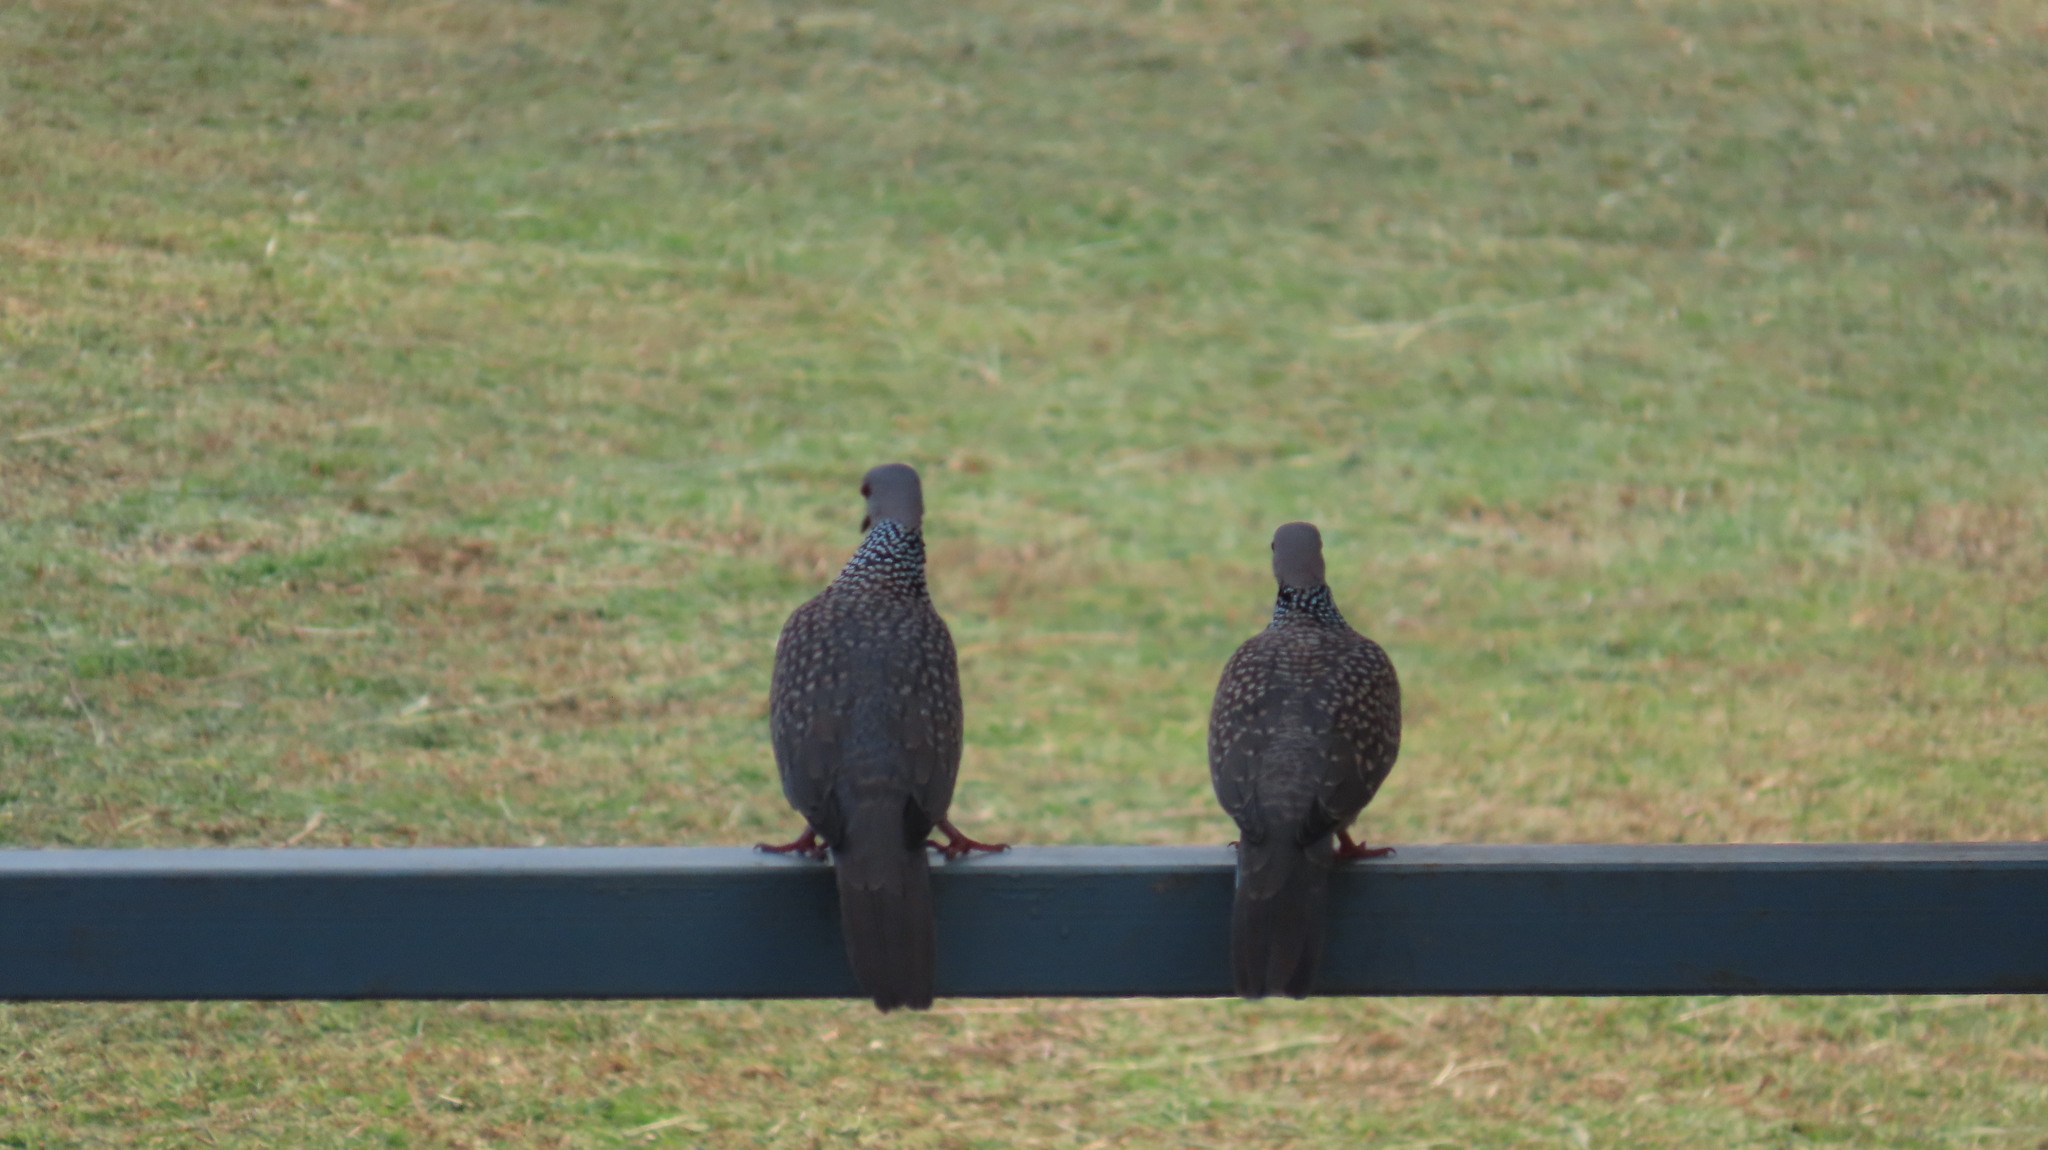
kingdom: Animalia
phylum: Chordata
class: Aves
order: Columbiformes
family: Columbidae
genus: Spilopelia
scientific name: Spilopelia chinensis
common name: Spotted dove
